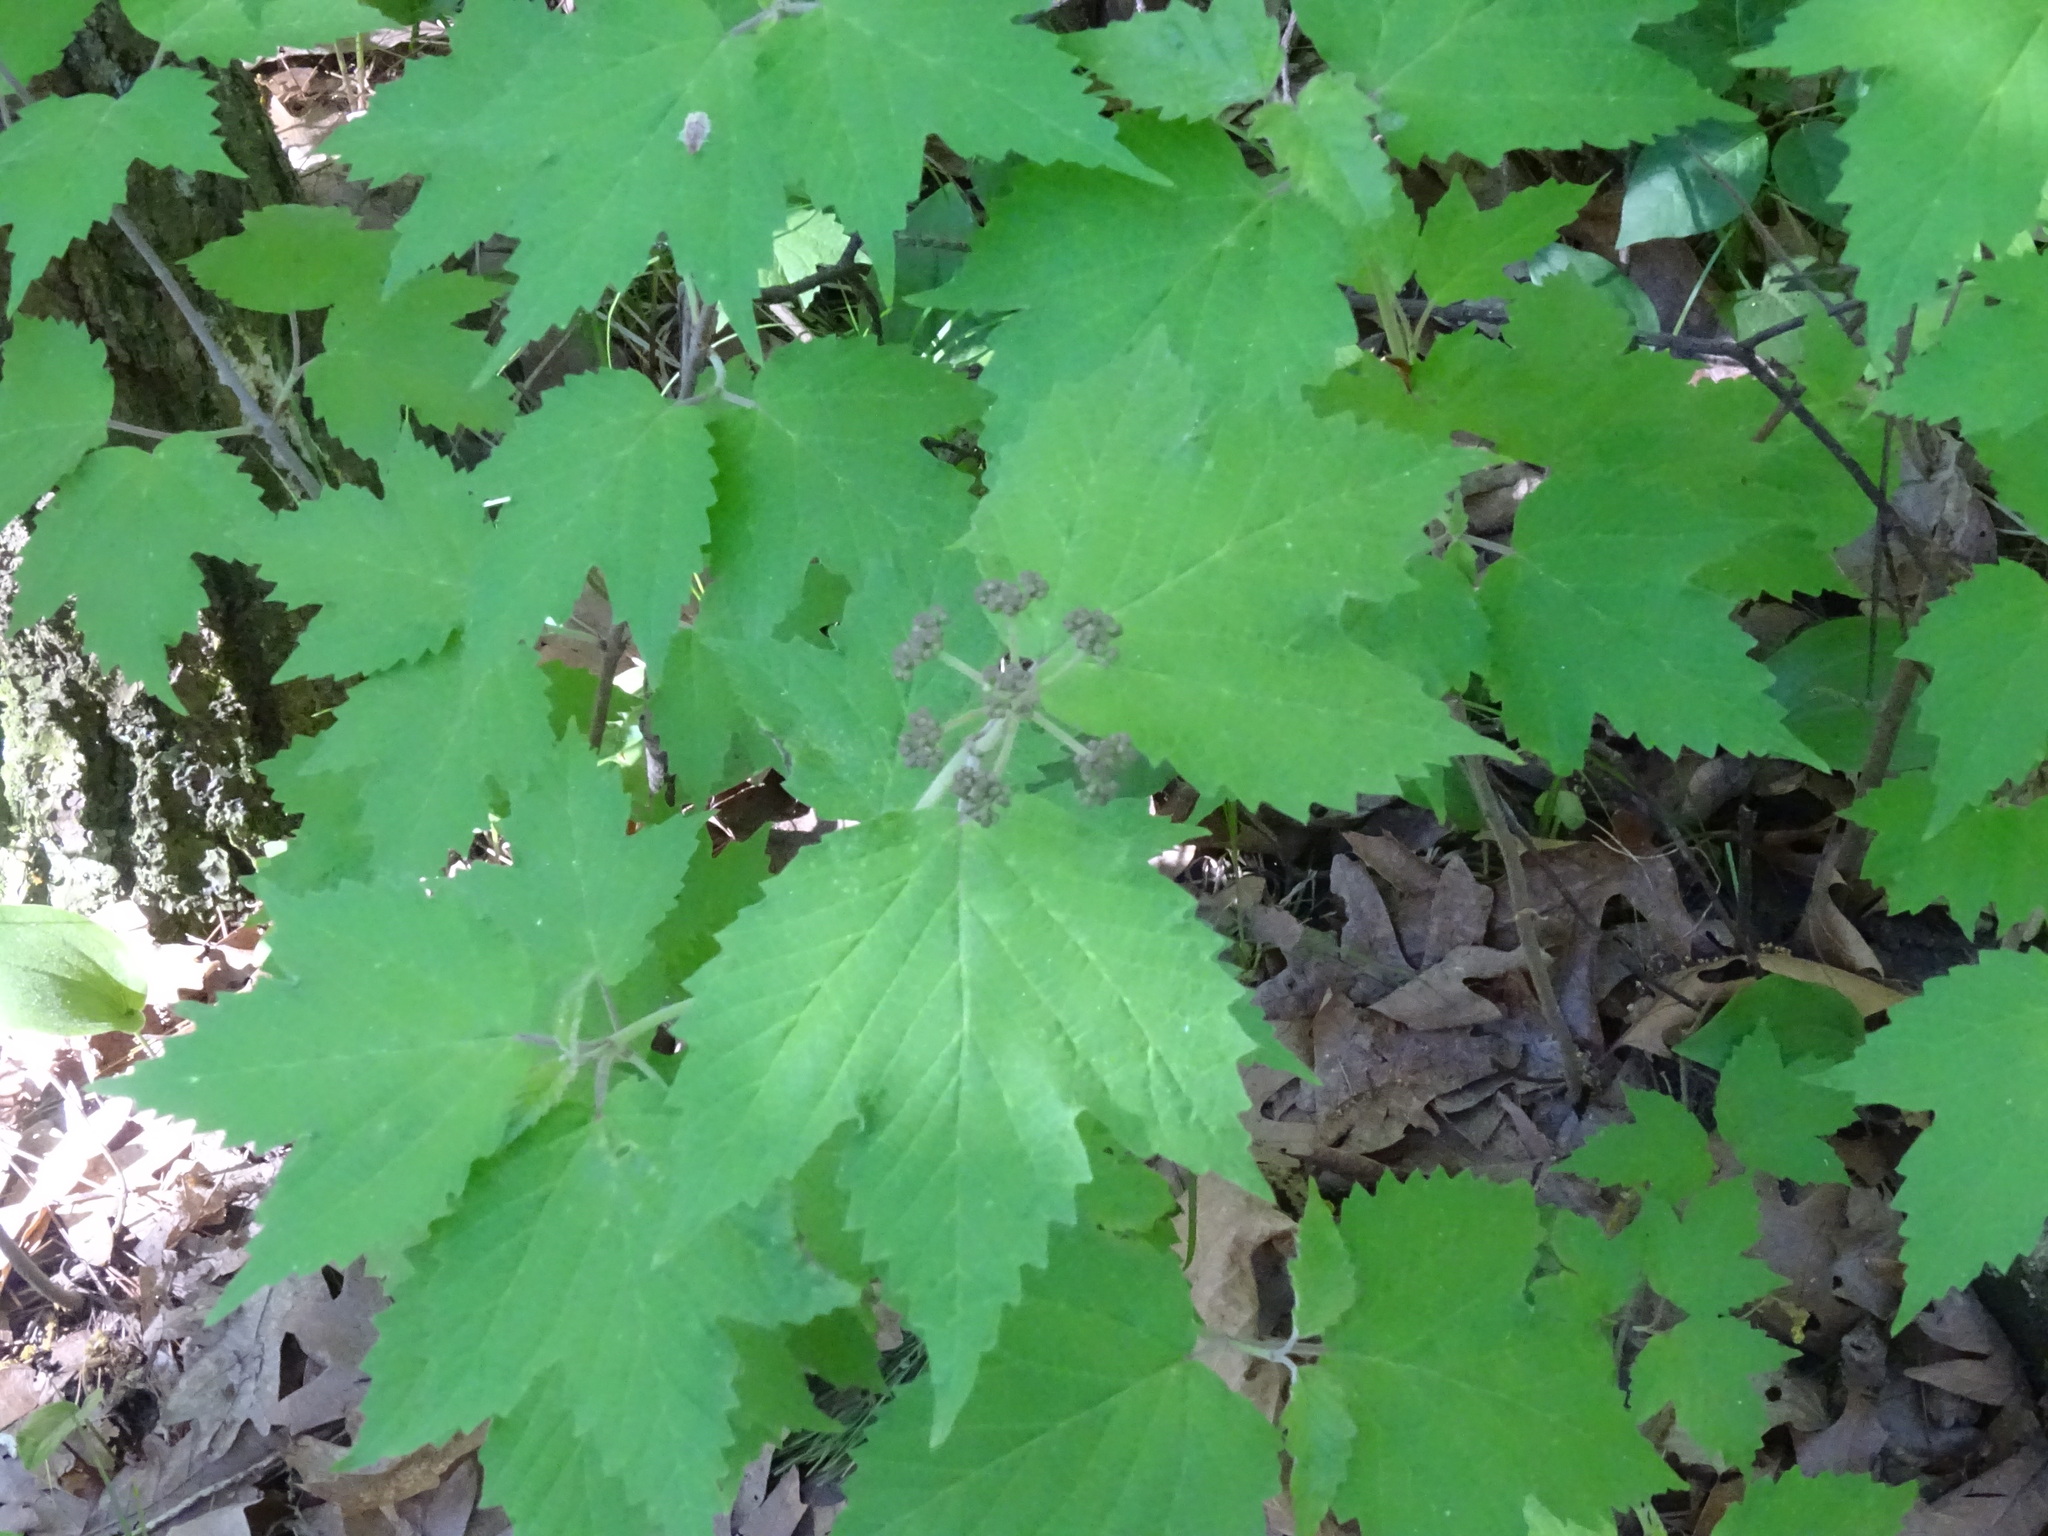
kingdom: Plantae
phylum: Tracheophyta
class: Magnoliopsida
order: Dipsacales
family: Viburnaceae
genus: Viburnum
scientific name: Viburnum acerifolium
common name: Dockmackie
